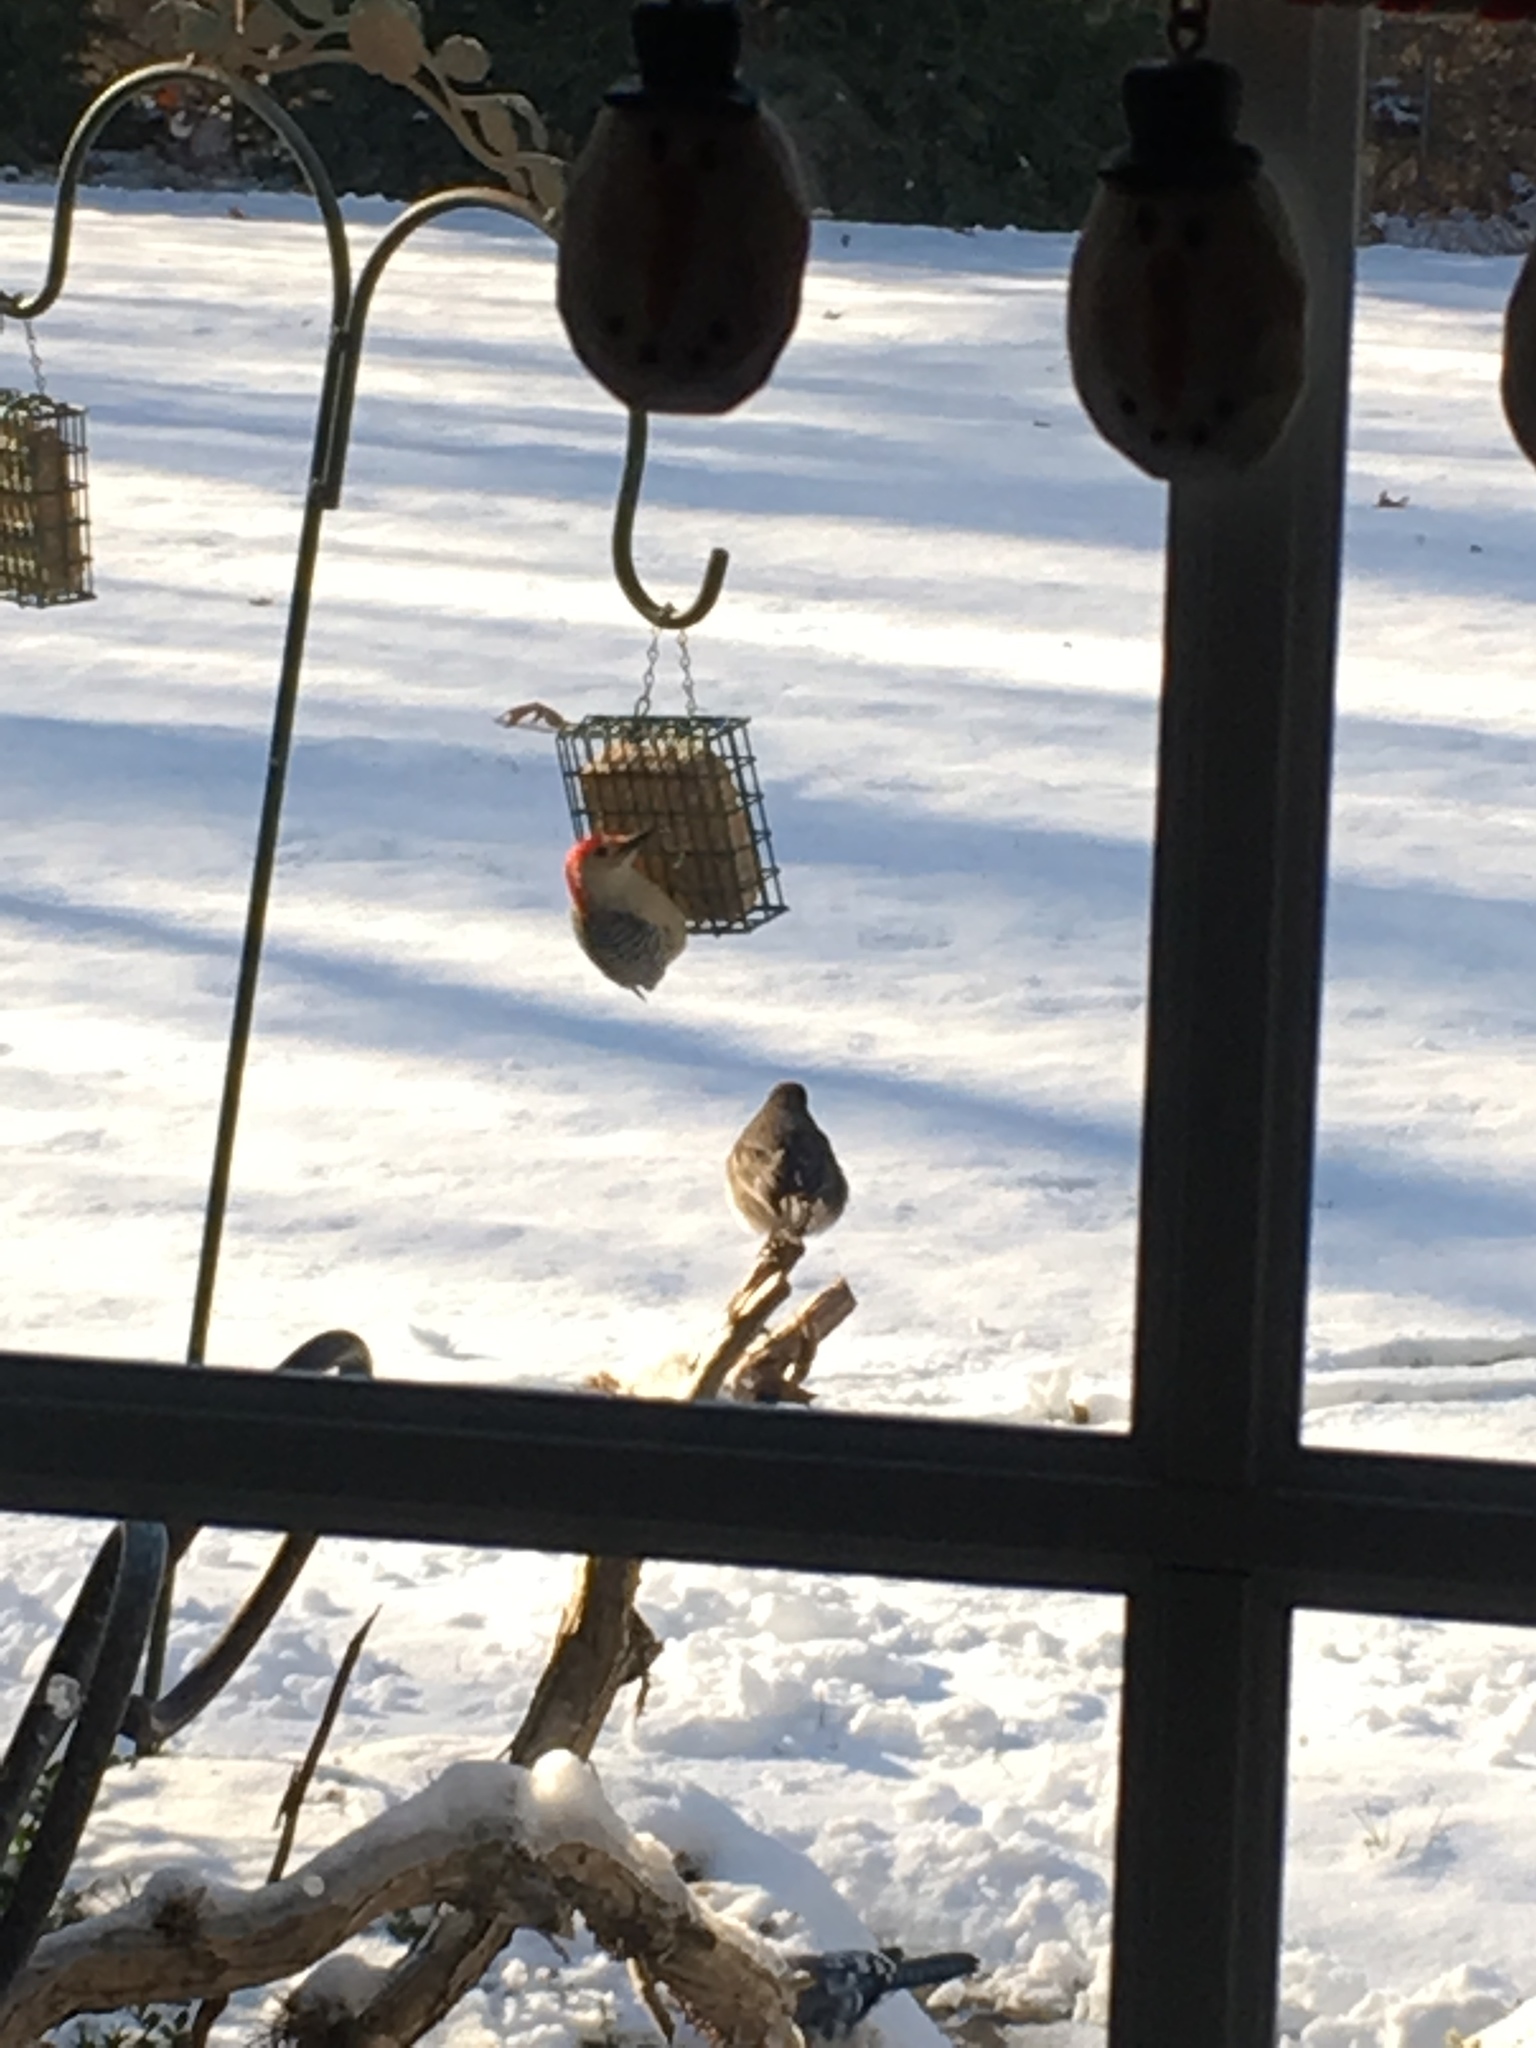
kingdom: Animalia
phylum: Chordata
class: Aves
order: Passeriformes
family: Passerellidae
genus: Junco
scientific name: Junco hyemalis
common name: Dark-eyed junco
